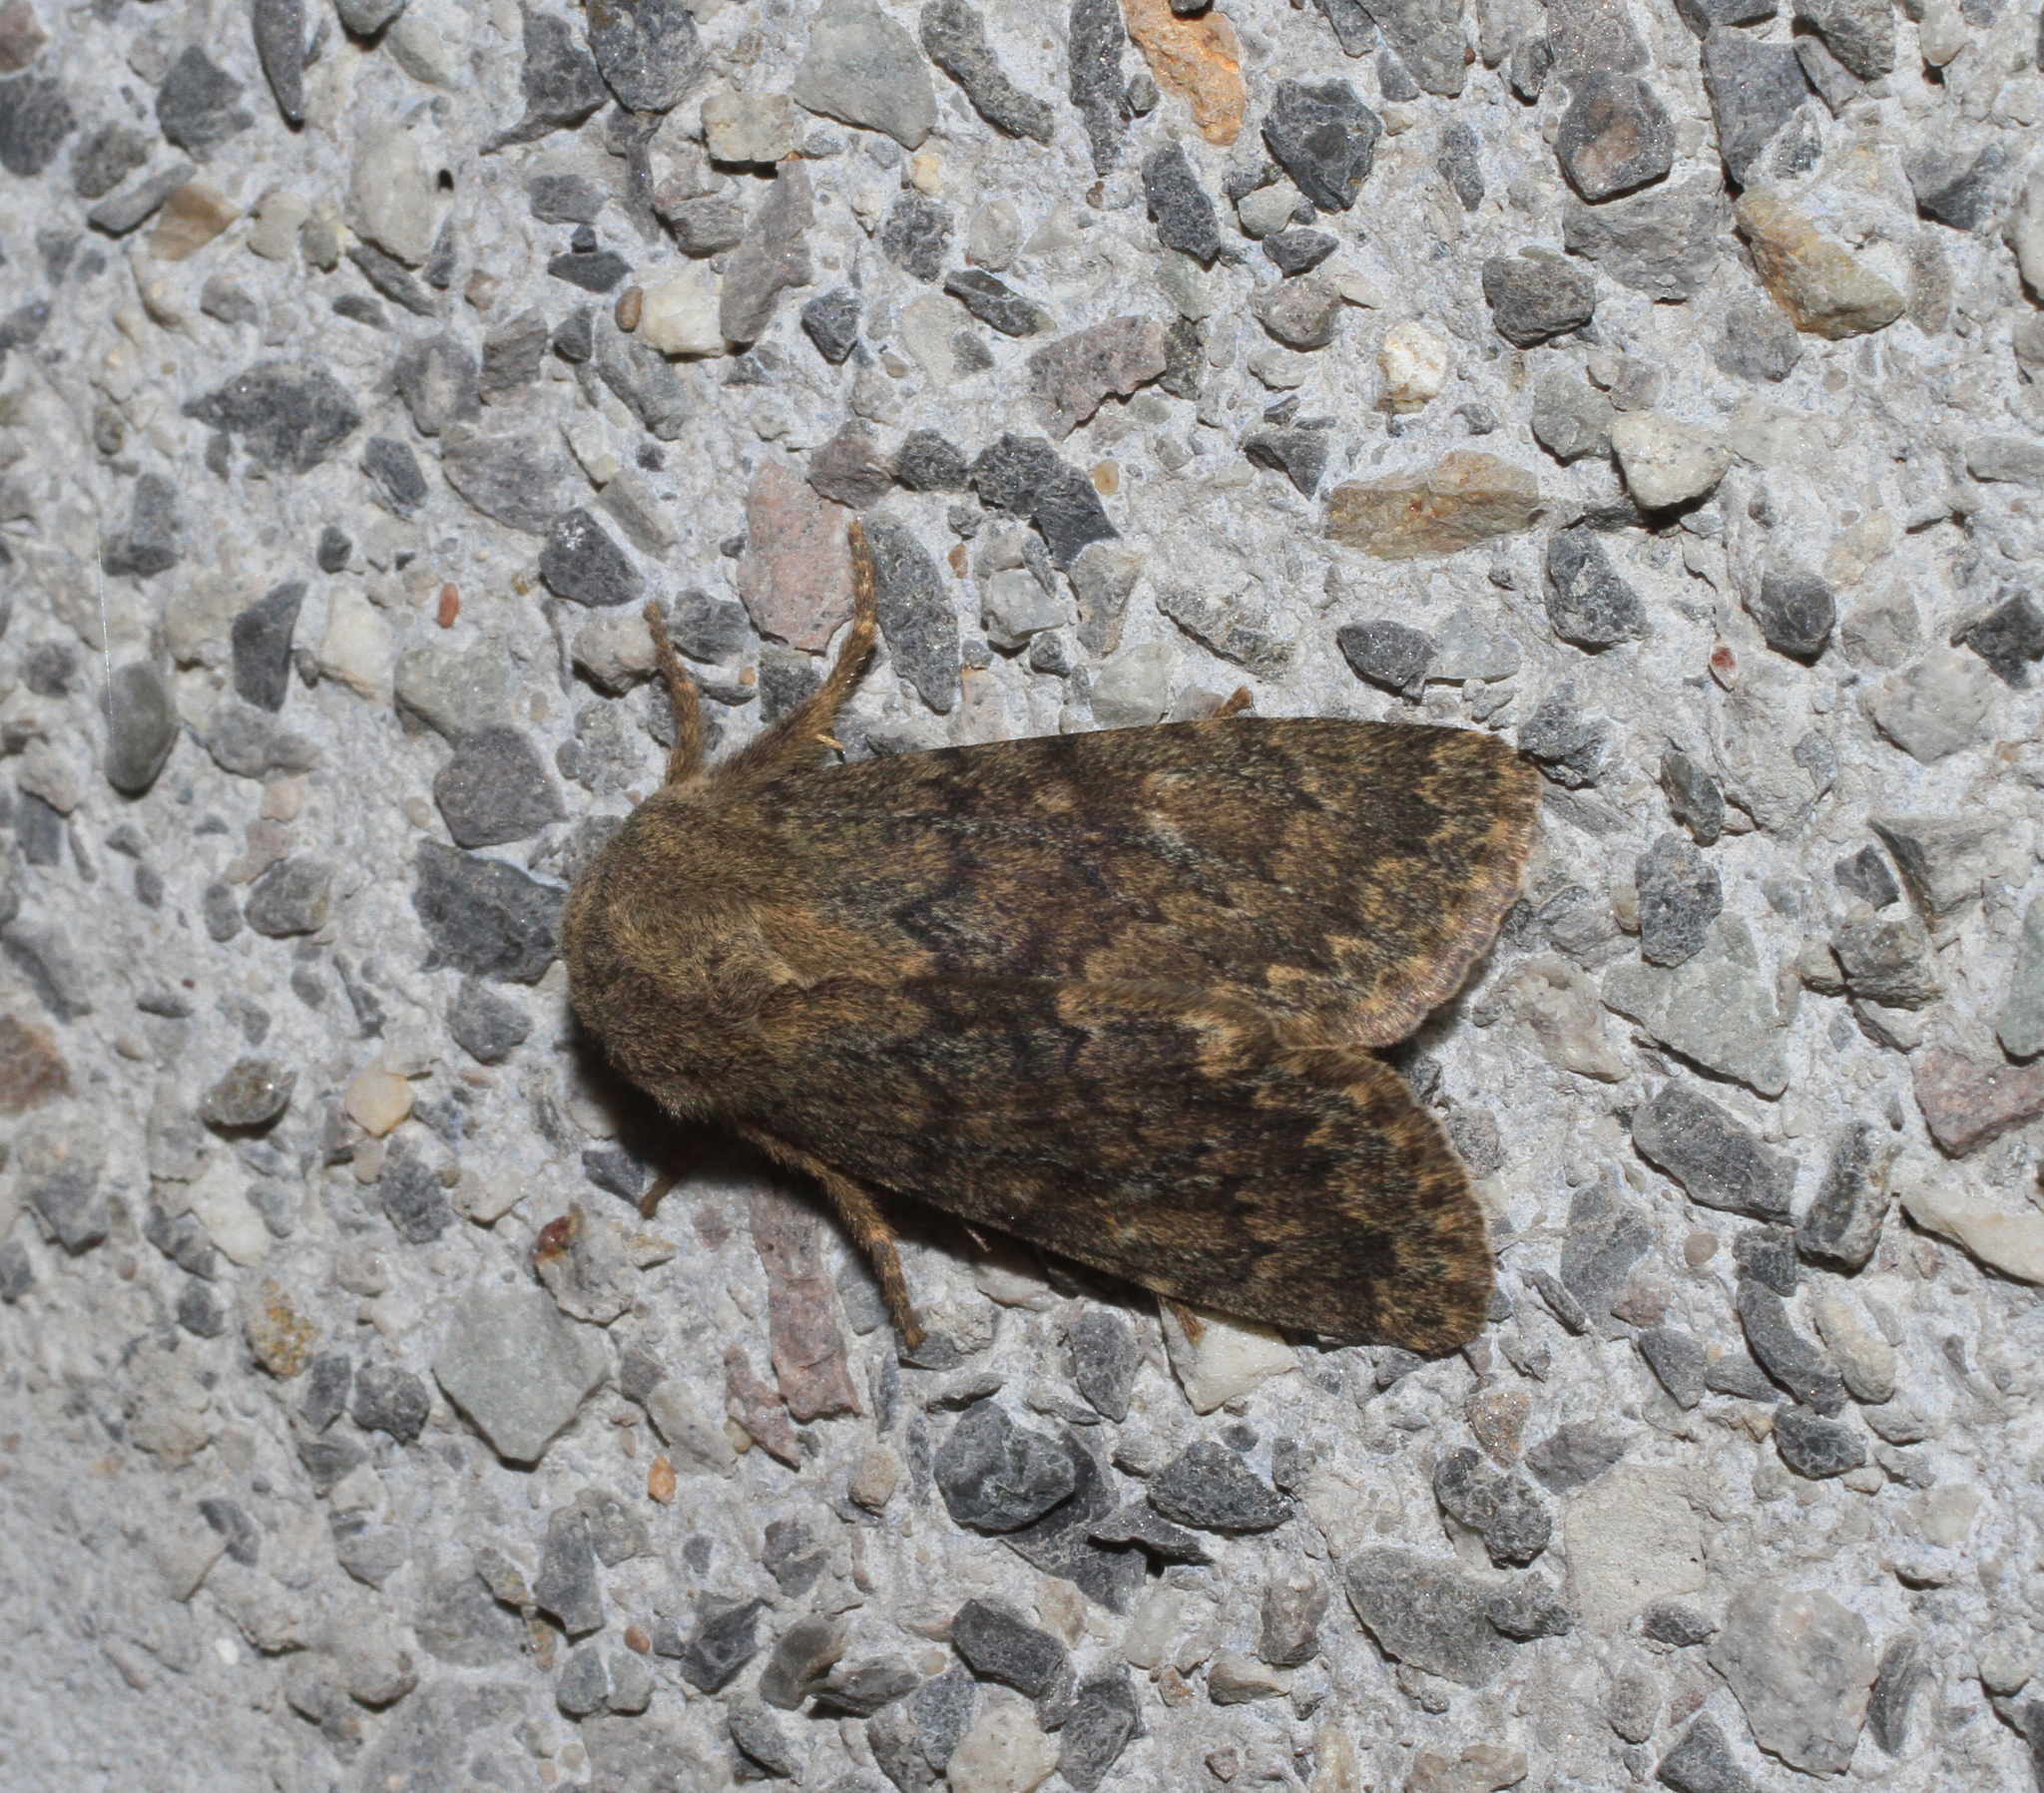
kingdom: Animalia
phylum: Arthropoda
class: Insecta
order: Lepidoptera
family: Noctuidae
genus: Dasypolia
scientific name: Dasypolia templi
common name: Brindled ochre
